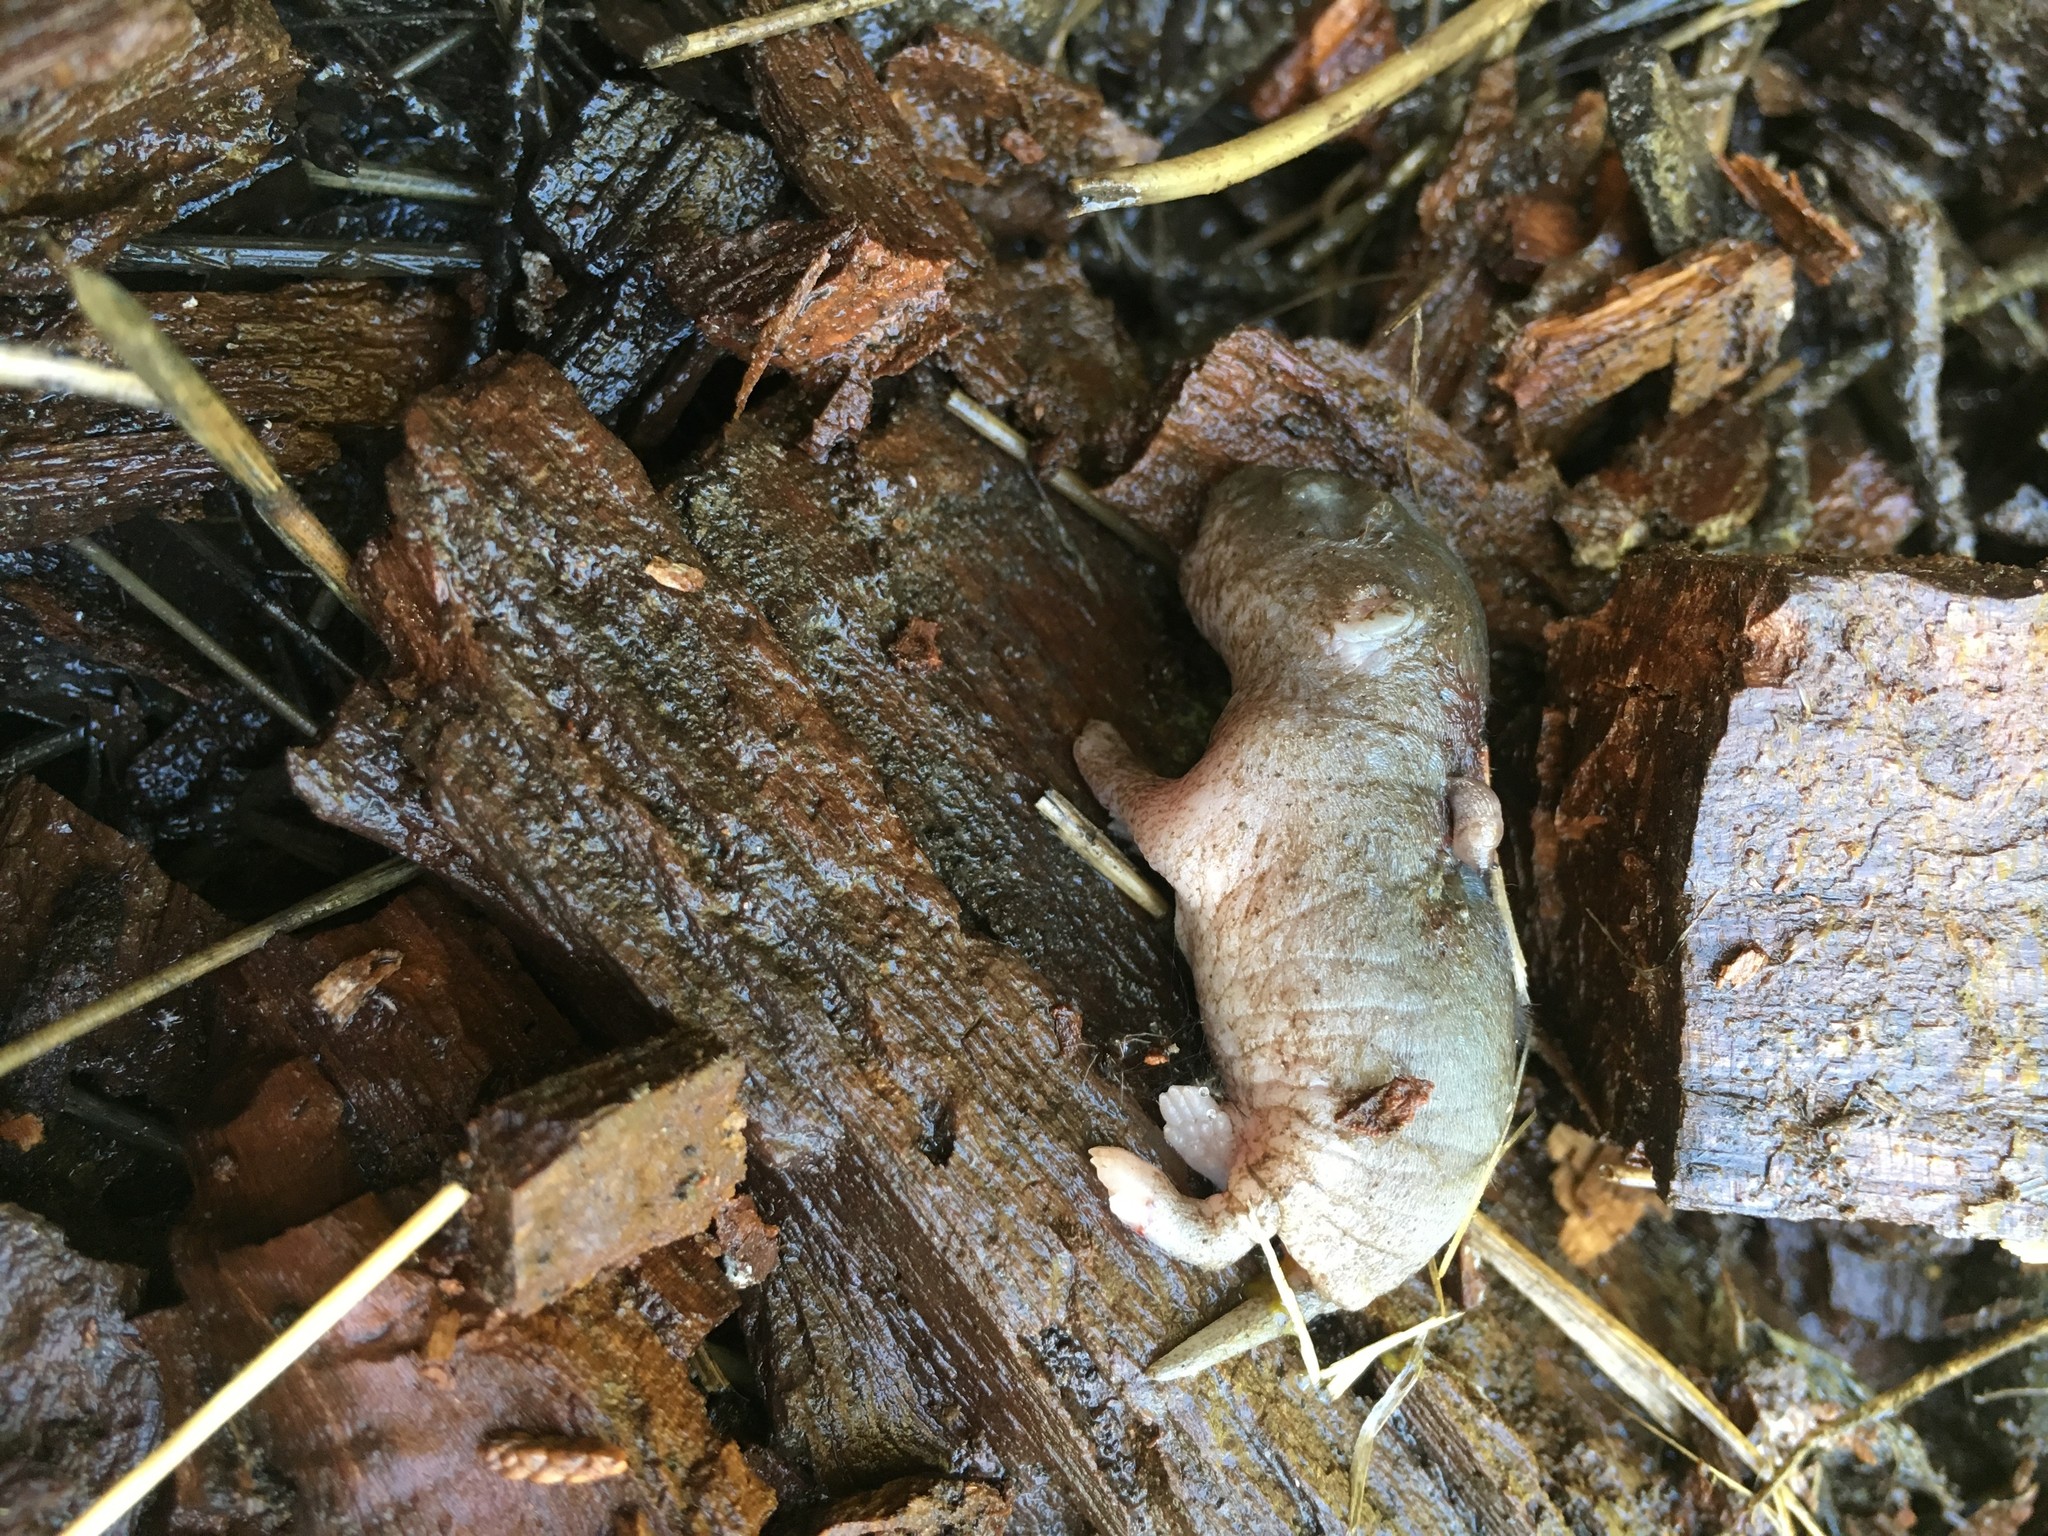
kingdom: Animalia
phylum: Chordata
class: Mammalia
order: Rodentia
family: Geomyidae
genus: Thomomys
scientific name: Thomomys bottae
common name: Botta's pocket gopher
